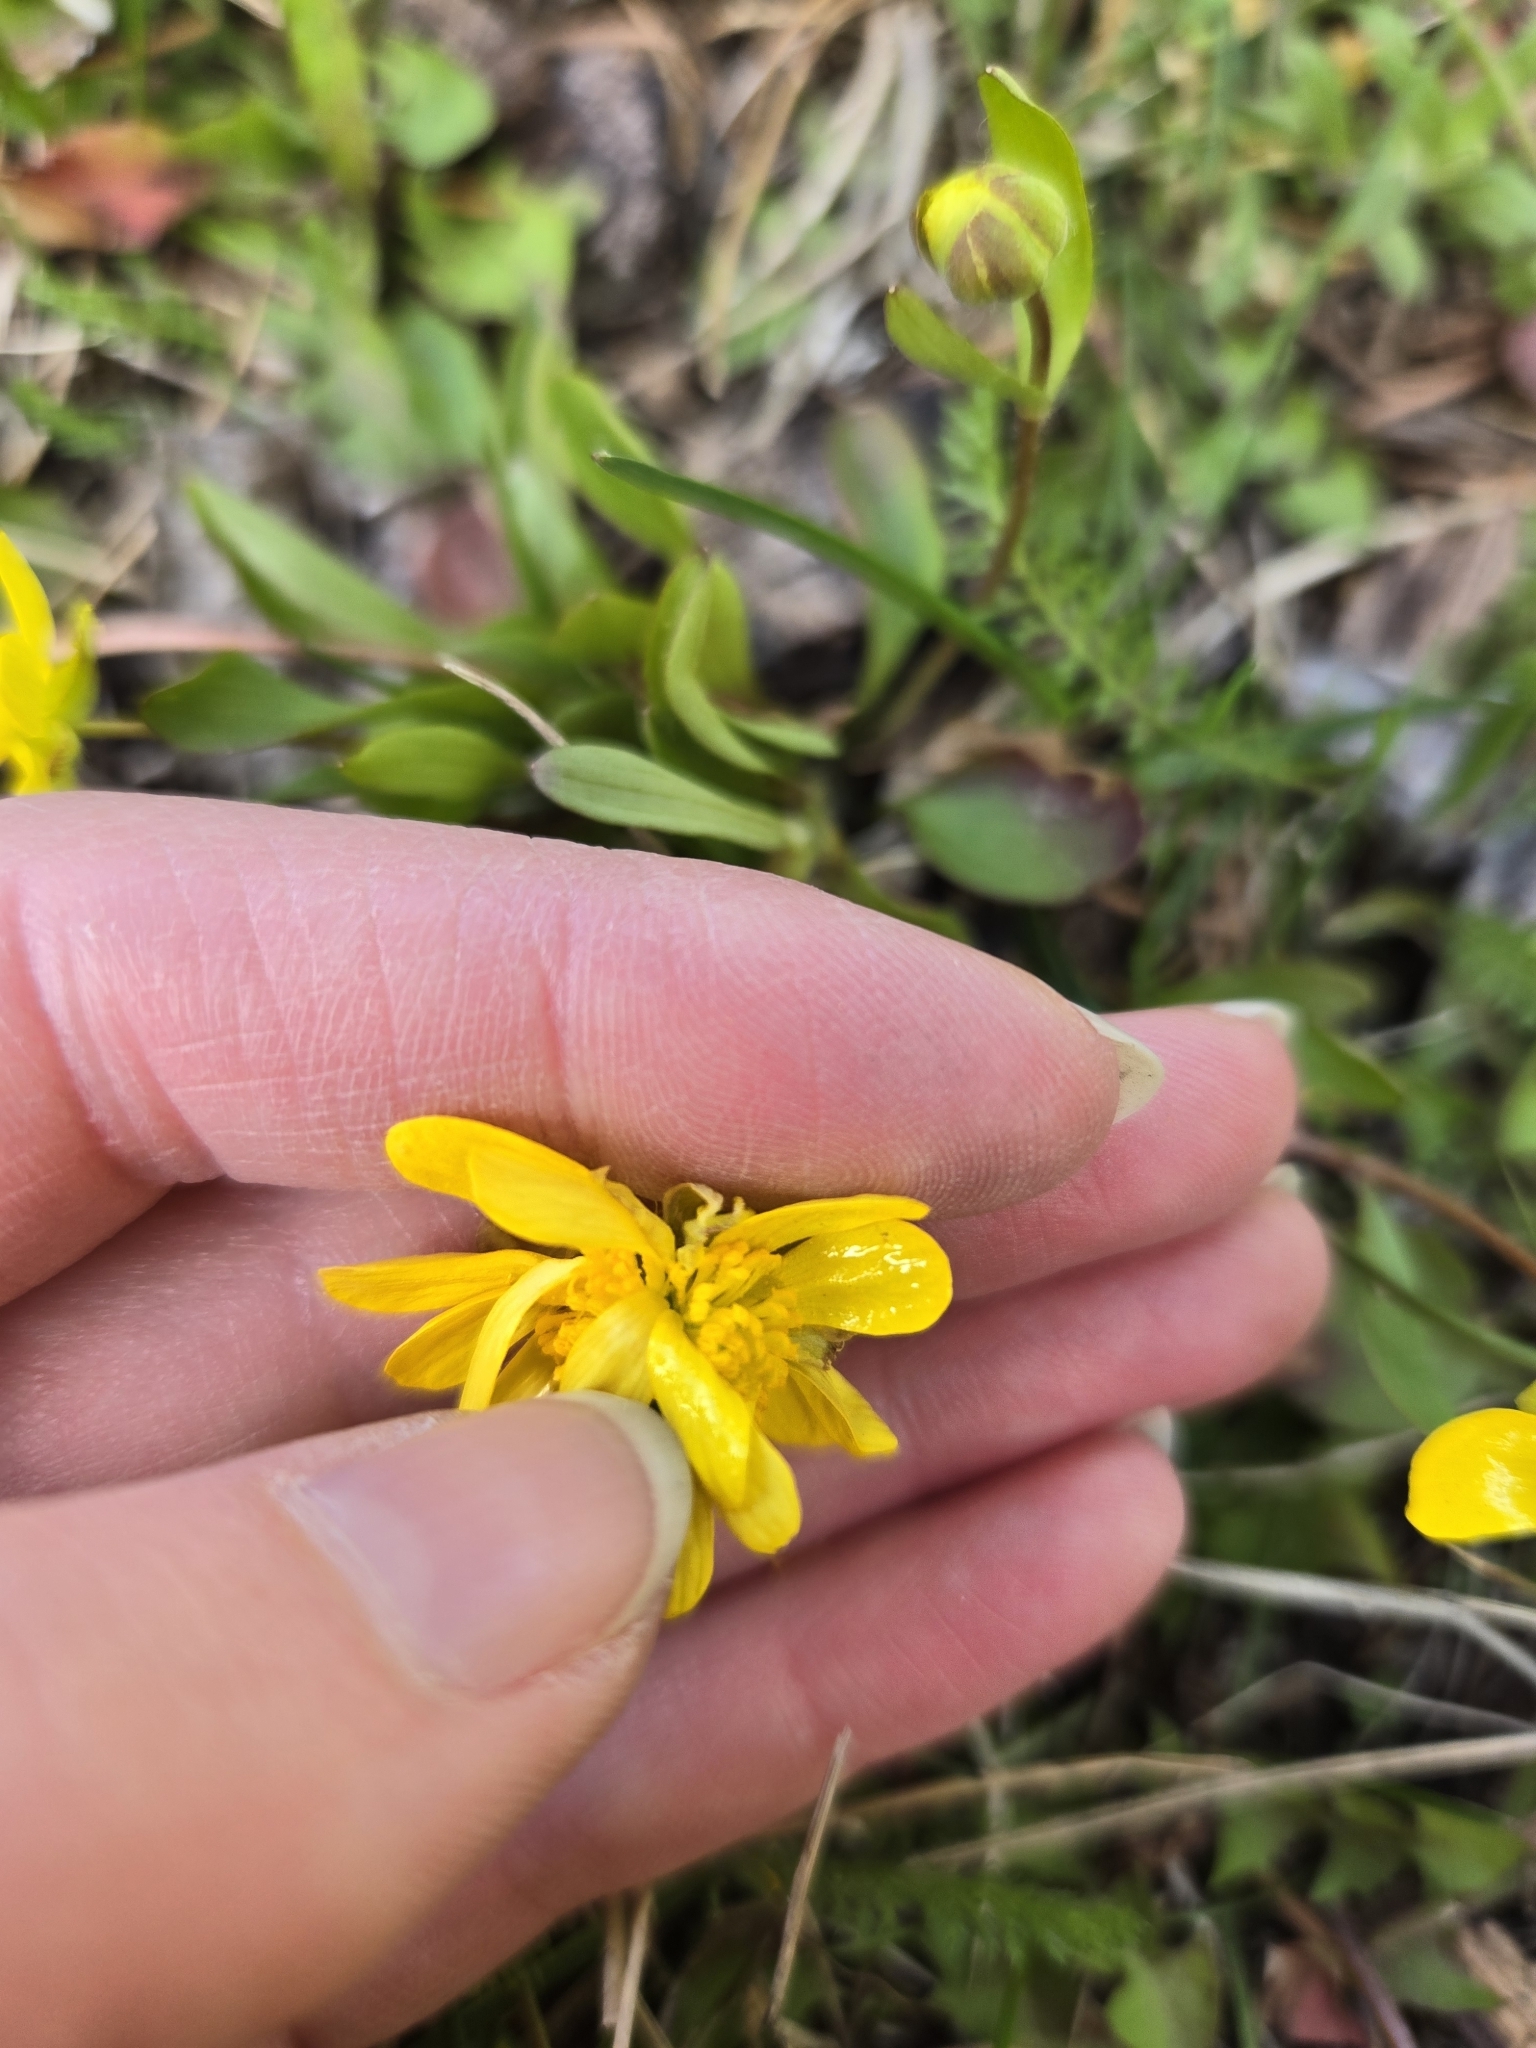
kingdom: Plantae
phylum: Tracheophyta
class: Magnoliopsida
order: Ranunculales
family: Ranunculaceae
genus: Ranunculus
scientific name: Ranunculus glaberrimus
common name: Sagebrush buttercup
